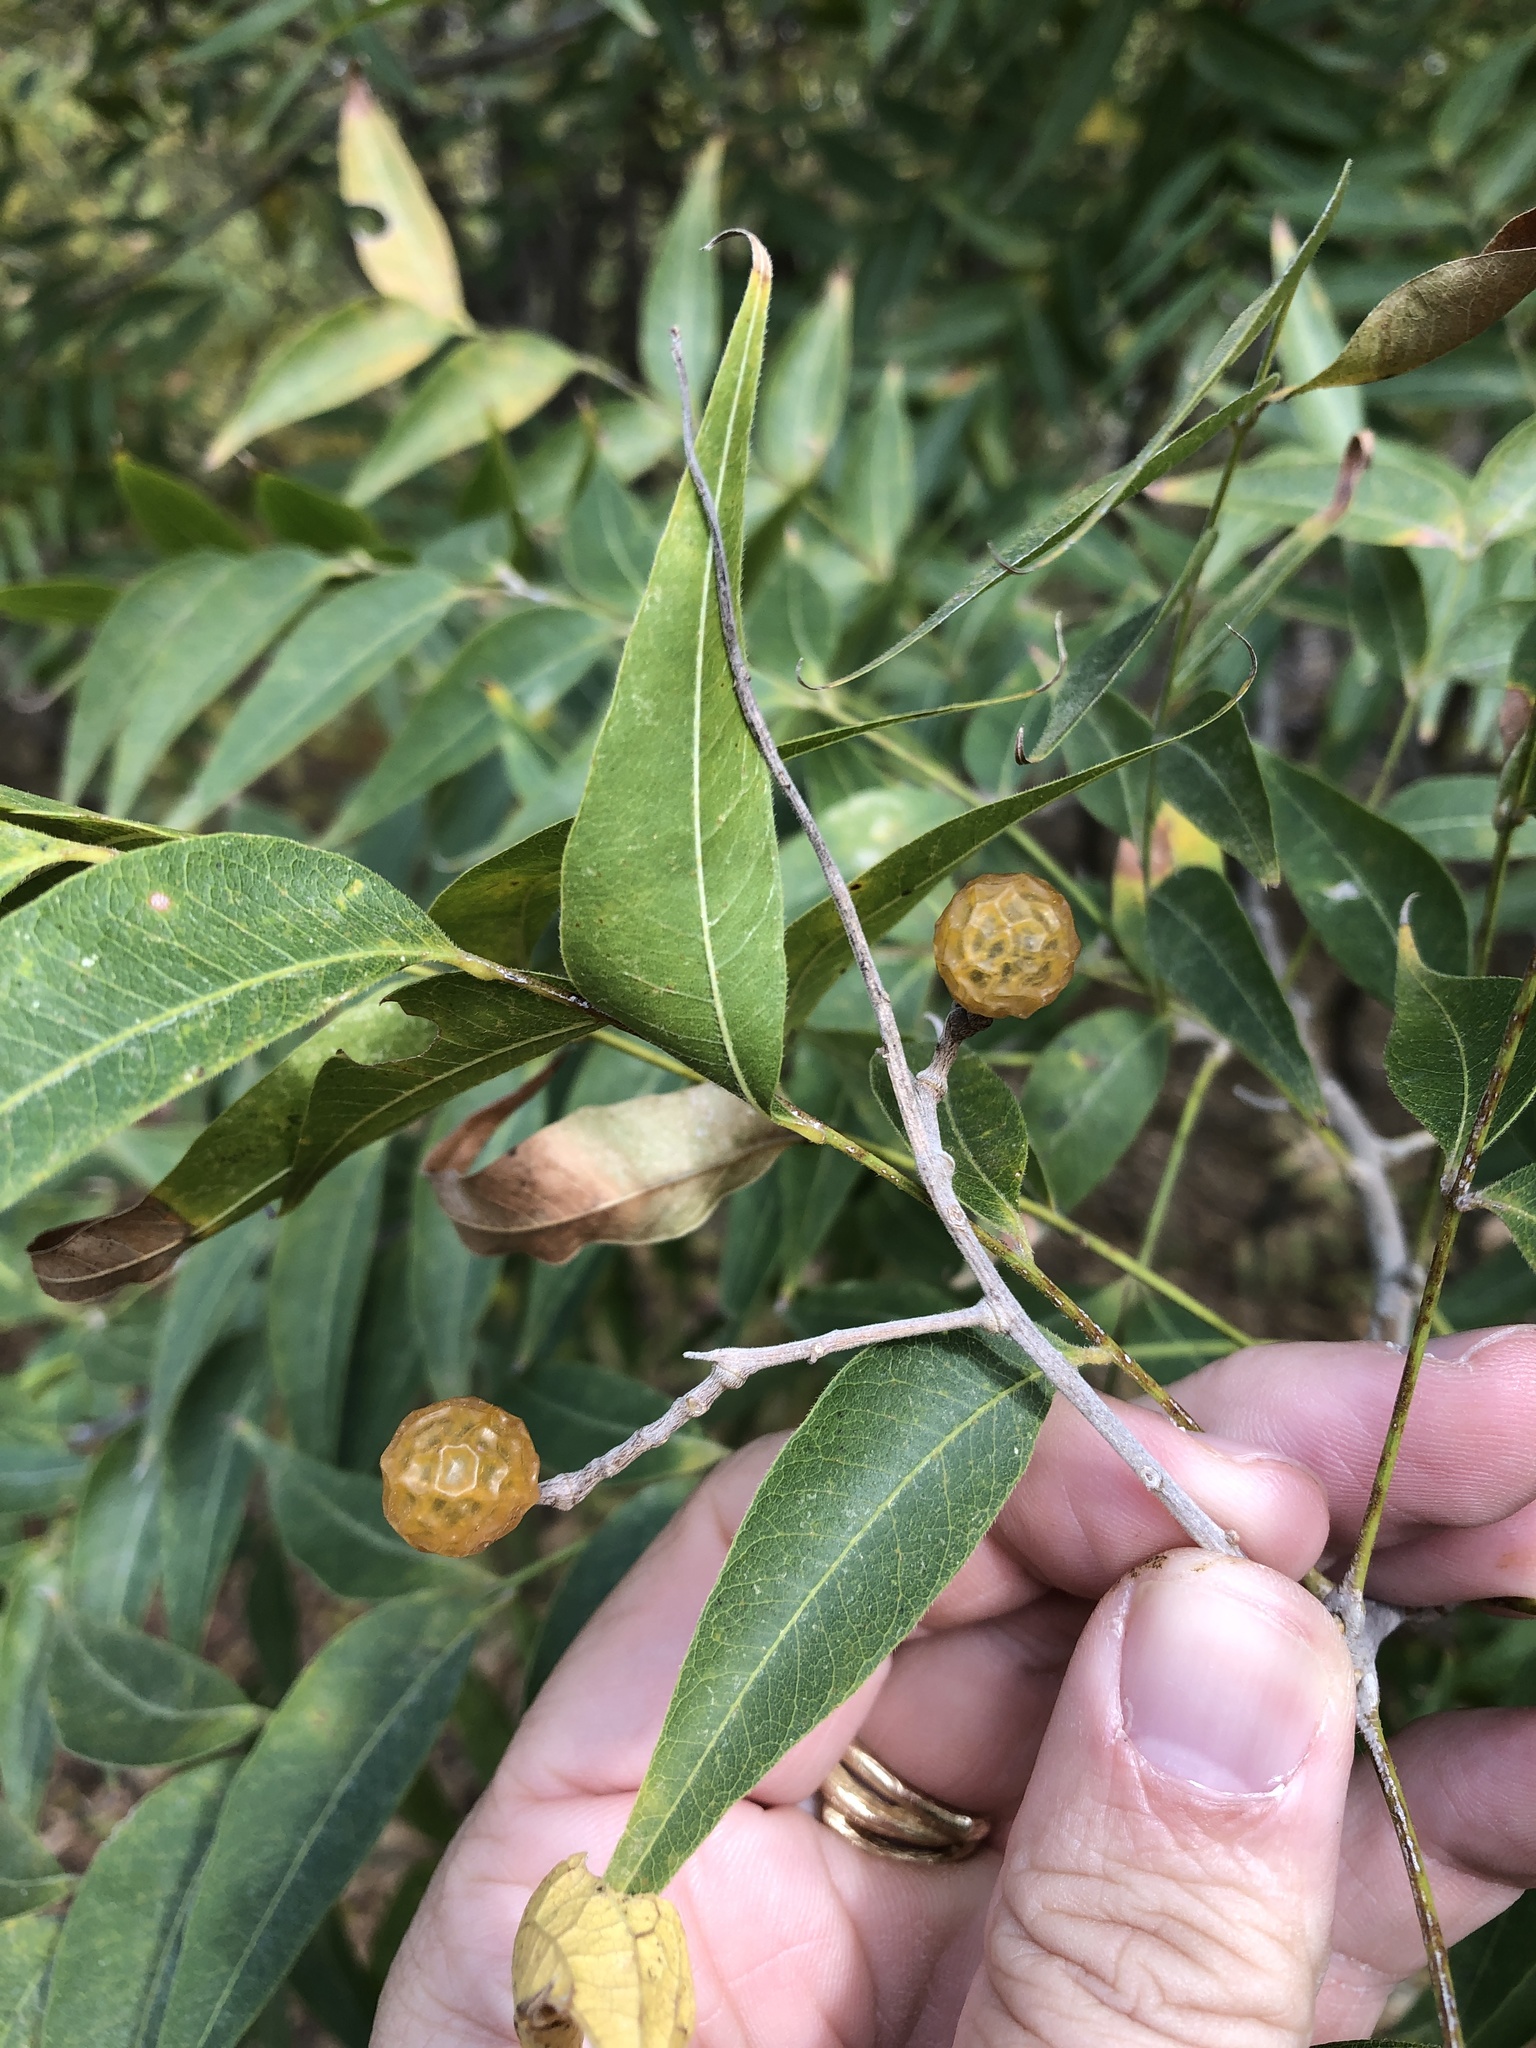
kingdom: Plantae
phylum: Tracheophyta
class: Magnoliopsida
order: Sapindales
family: Sapindaceae
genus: Sapindus
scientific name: Sapindus drummondii
